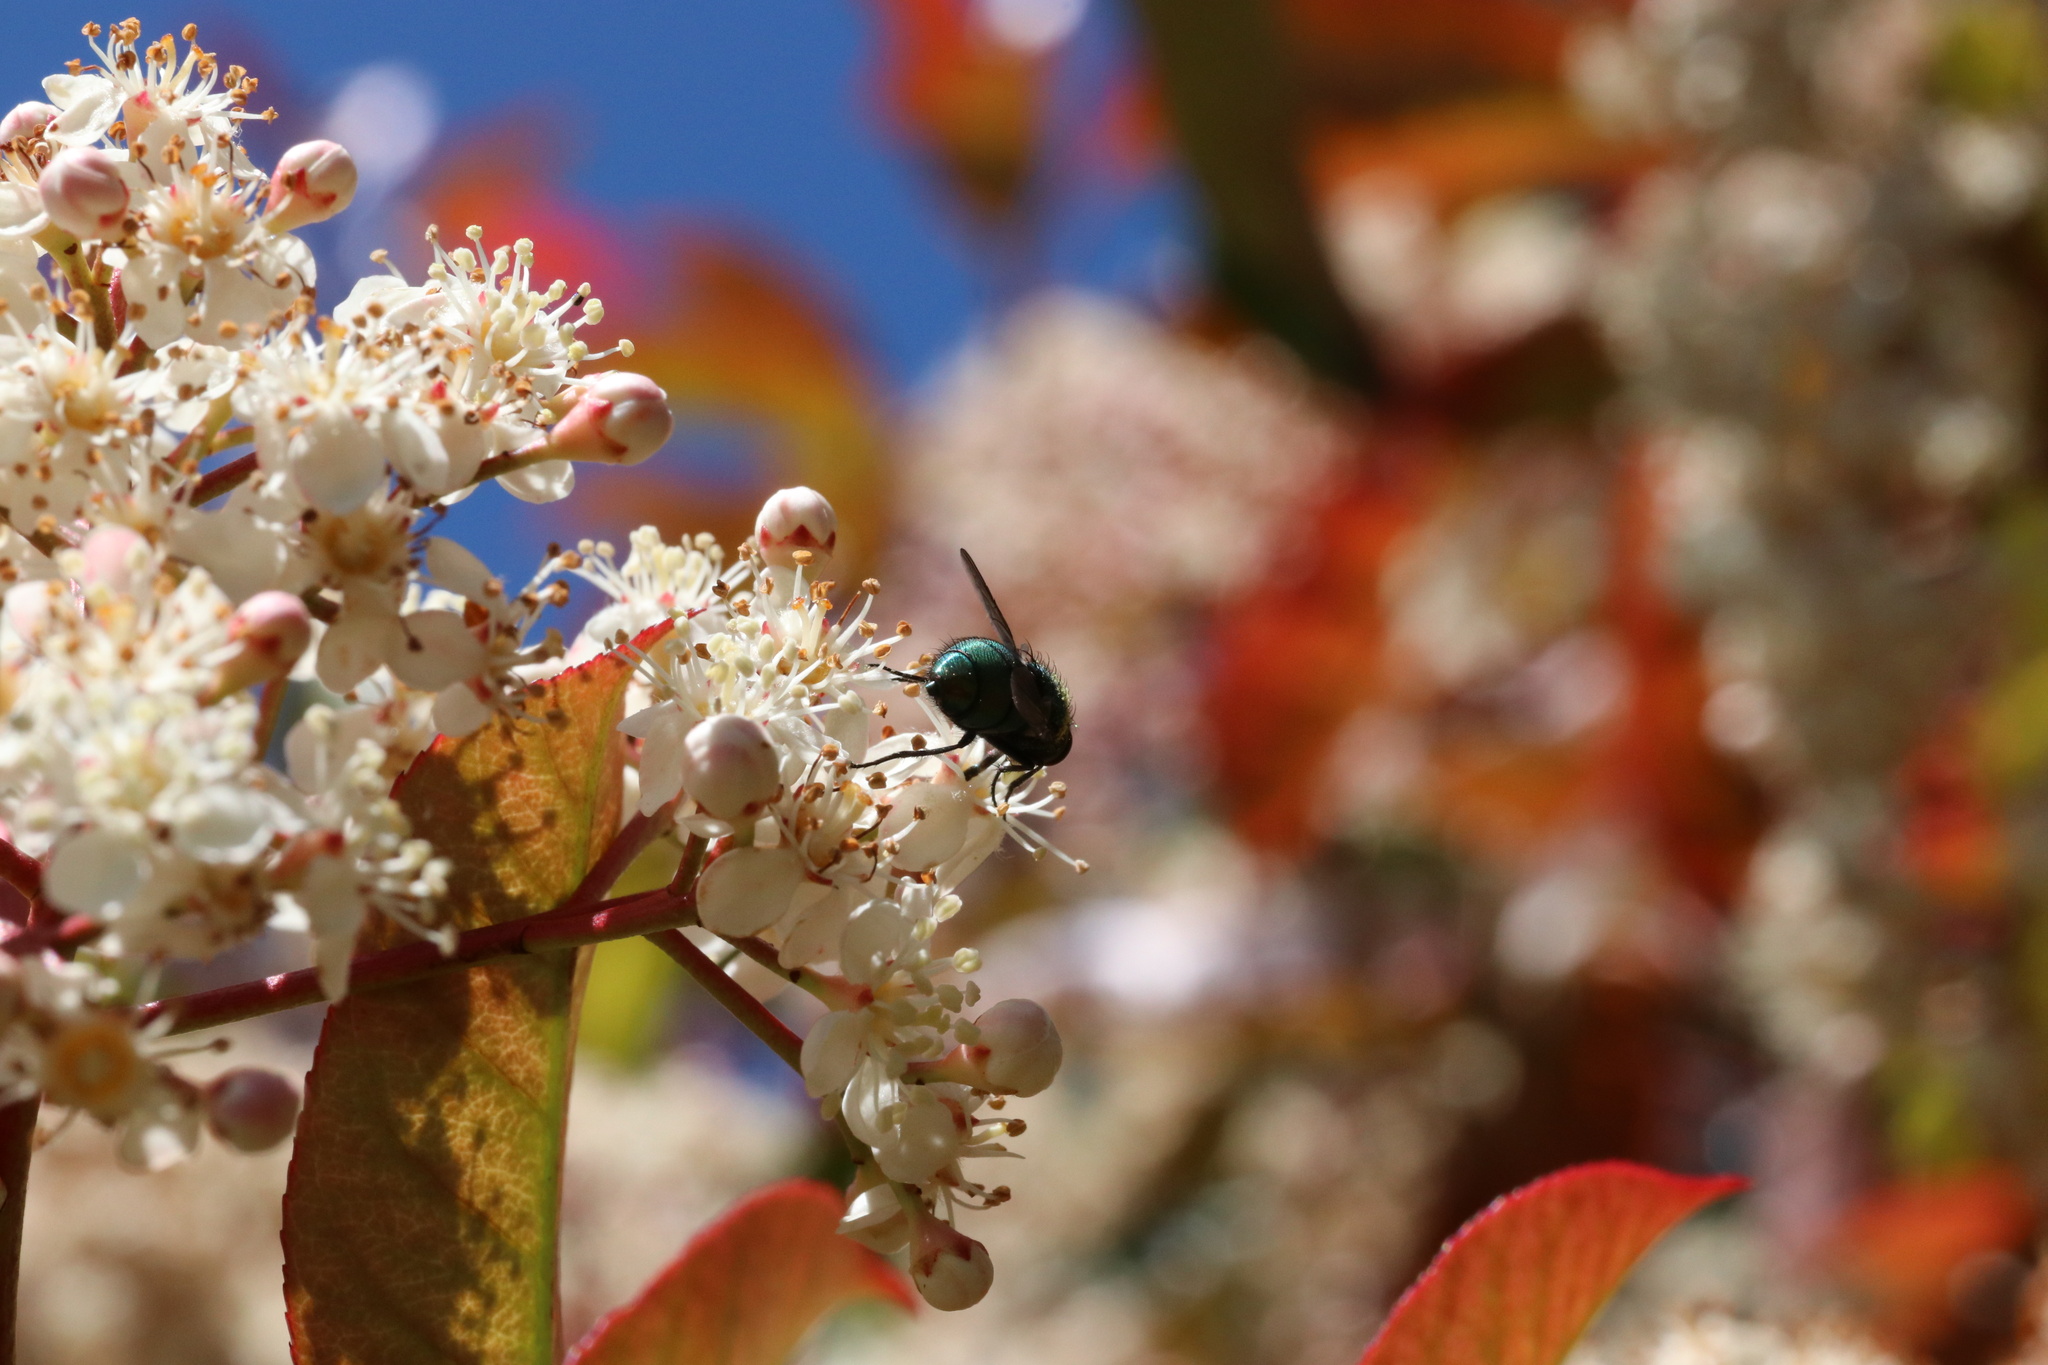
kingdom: Animalia
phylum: Arthropoda
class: Insecta
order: Diptera
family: Calliphoridae
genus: Lucilia
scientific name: Lucilia sericata
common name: Blow fly
